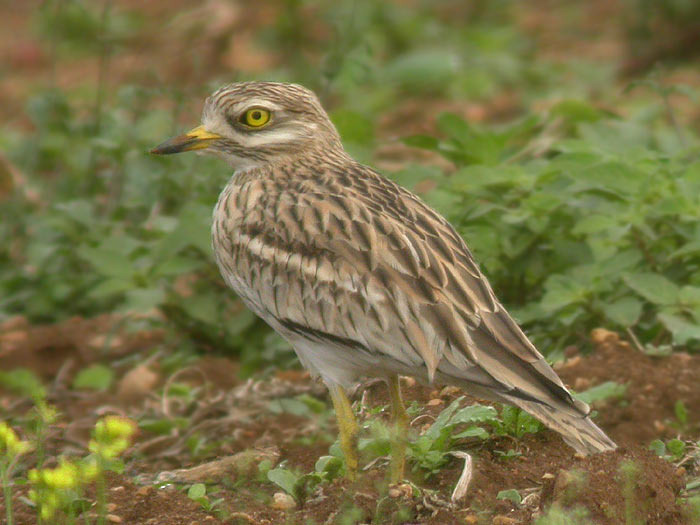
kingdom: Animalia
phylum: Chordata
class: Aves
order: Charadriiformes
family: Burhinidae
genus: Burhinus
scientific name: Burhinus oedicnemus
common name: Eurasian stone-curlew
